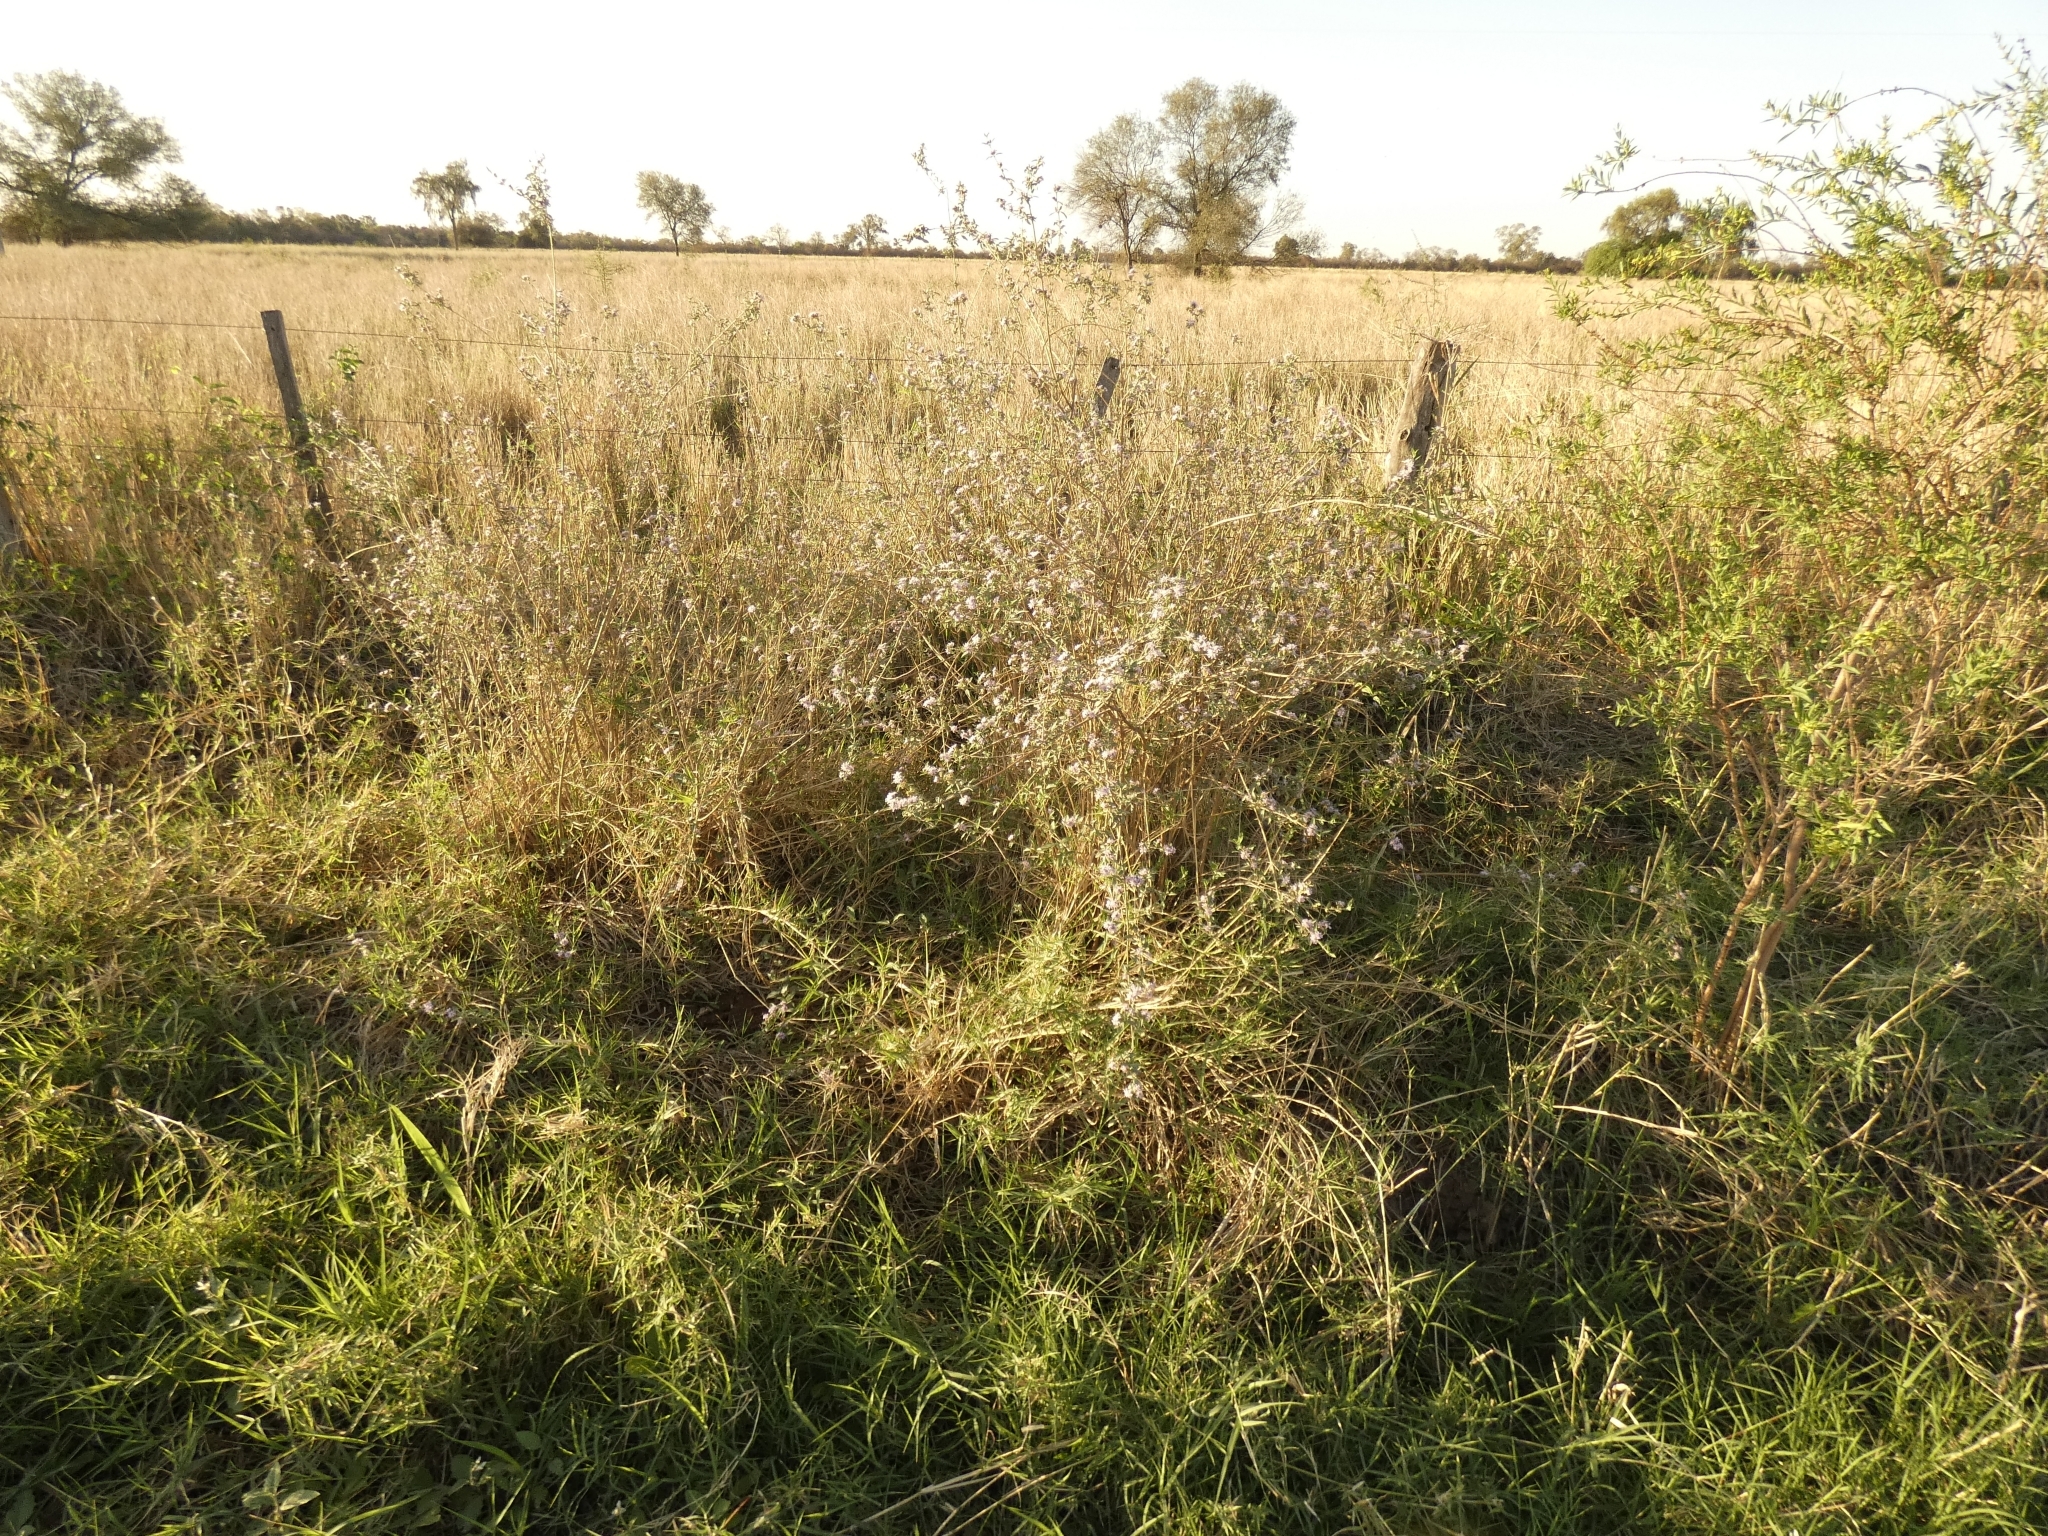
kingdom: Plantae
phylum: Tracheophyta
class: Magnoliopsida
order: Lamiales
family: Verbenaceae
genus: Lippia
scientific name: Lippia alba
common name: Bushy matgrass
